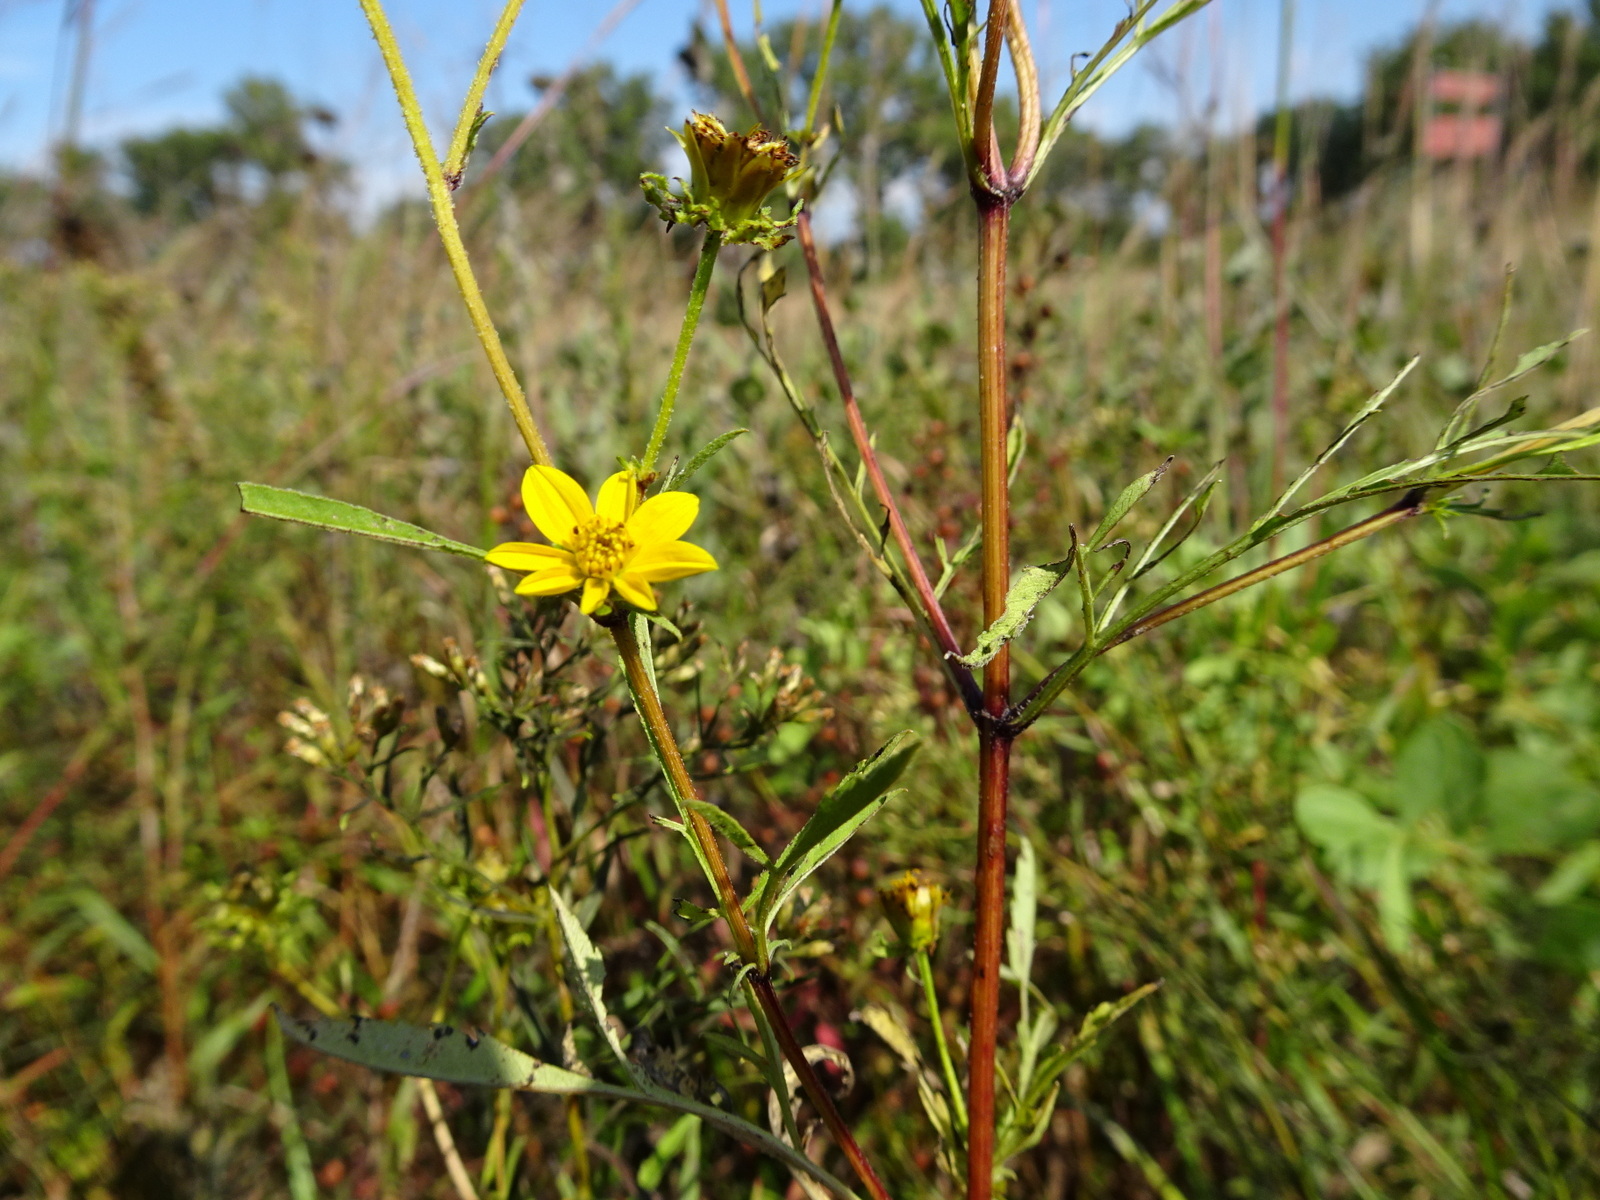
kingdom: Plantae
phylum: Tracheophyta
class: Magnoliopsida
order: Asterales
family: Asteraceae
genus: Bidens
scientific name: Bidens polylepis
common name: Awnless beggarticks
